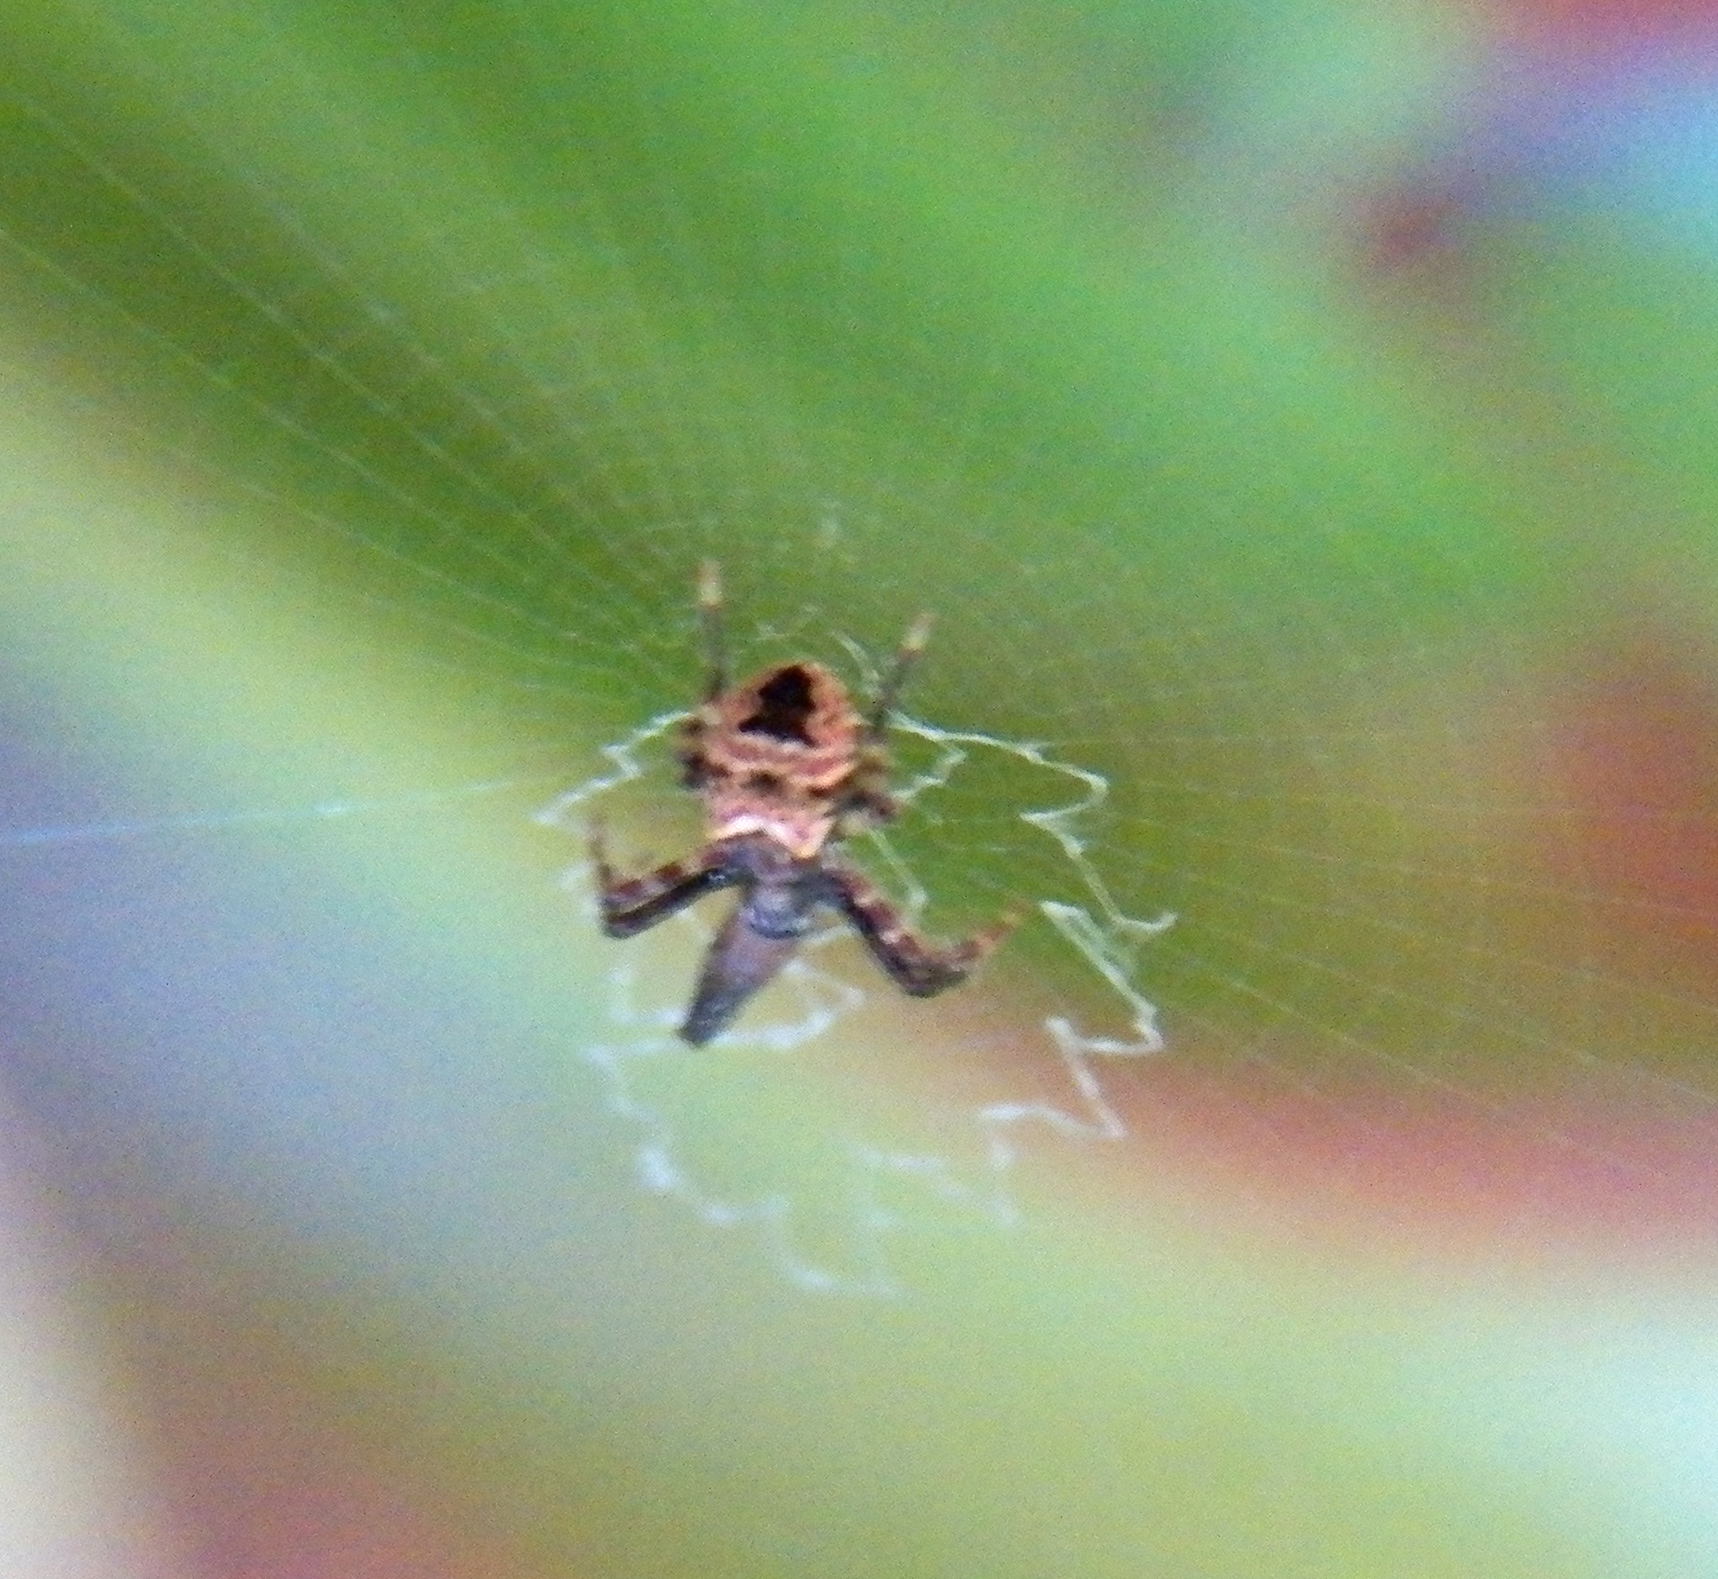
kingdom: Animalia
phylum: Arthropoda
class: Arachnida
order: Araneae
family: Araneidae
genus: Gea
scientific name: Gea heptagon
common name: Orb weavers
